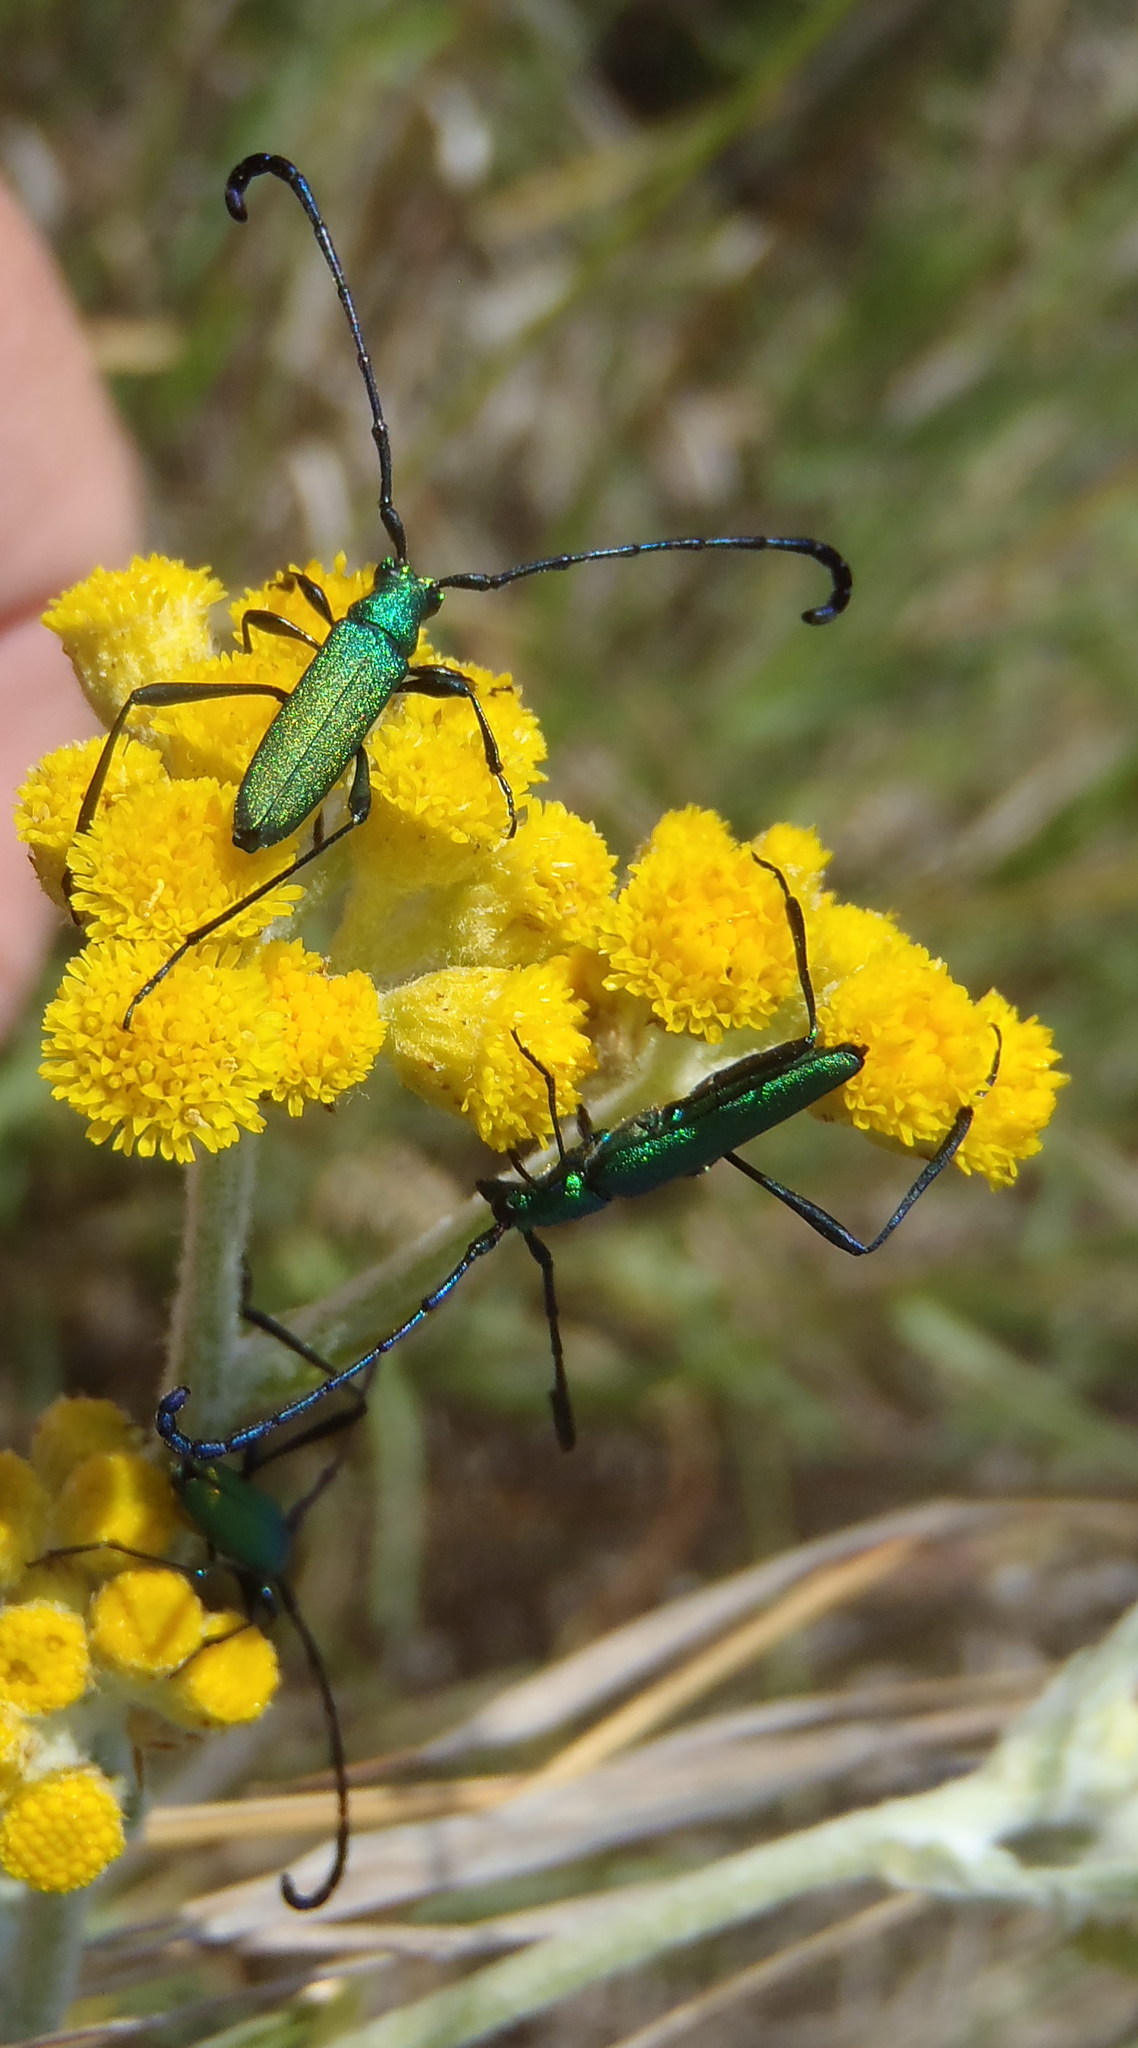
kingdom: Animalia
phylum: Arthropoda
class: Insecta
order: Coleoptera
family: Cerambycidae
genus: Hypocrites
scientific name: Hypocrites
